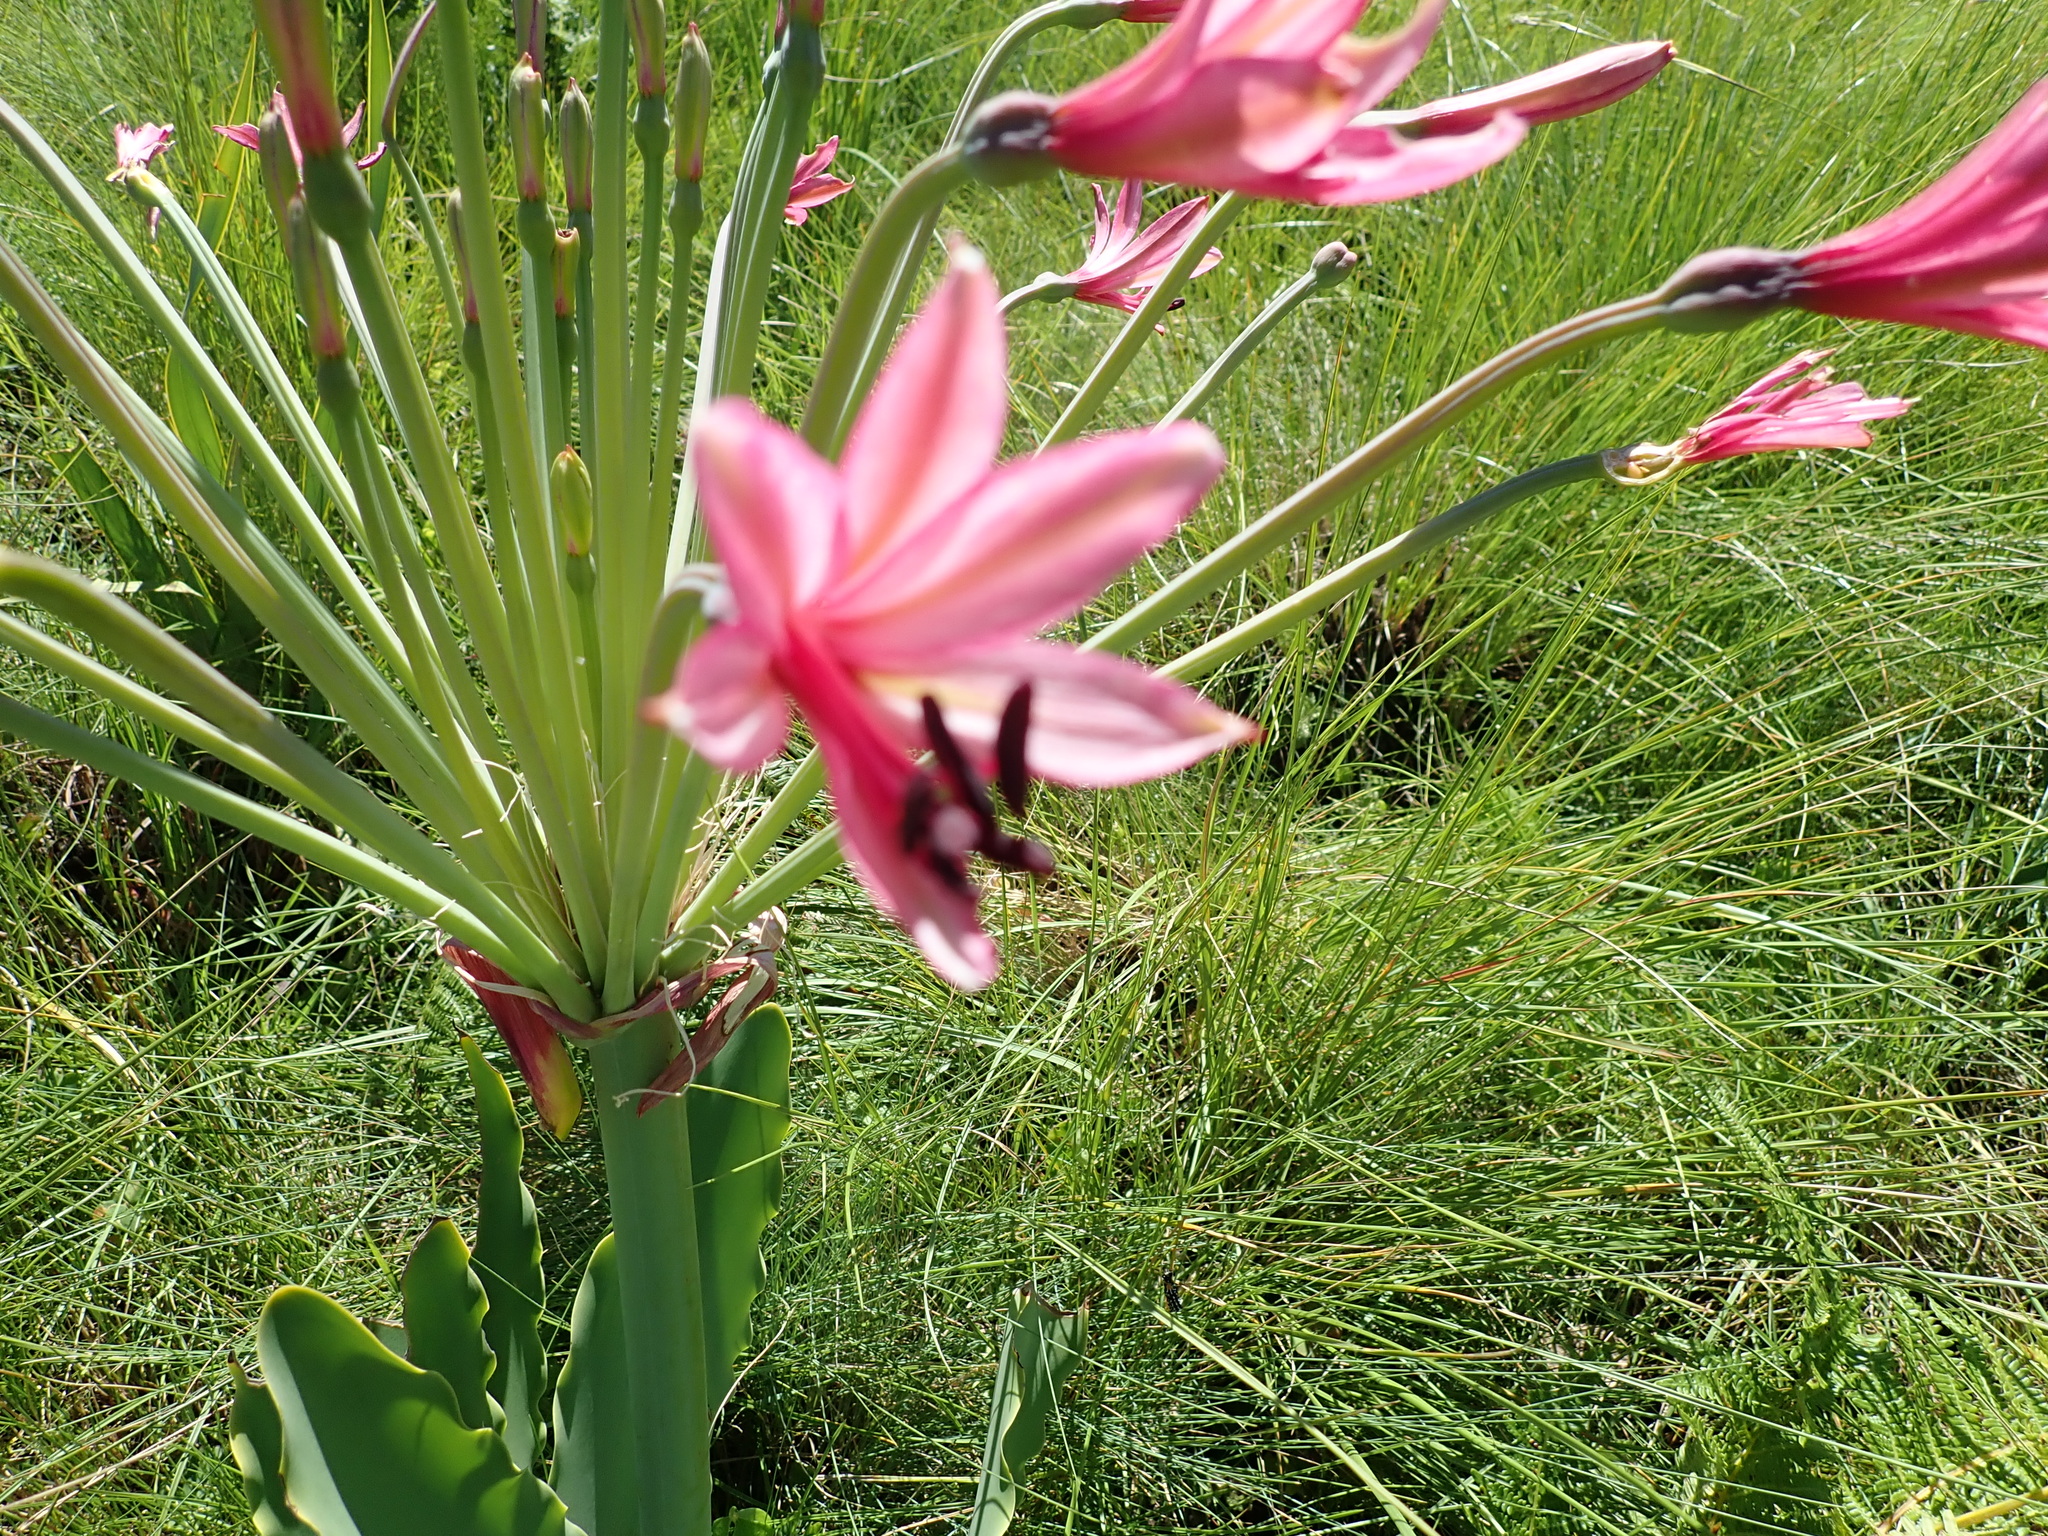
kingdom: Plantae
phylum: Tracheophyta
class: Liliopsida
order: Asparagales
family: Amaryllidaceae
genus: Brunsvigia
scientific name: Brunsvigia grandiflora
